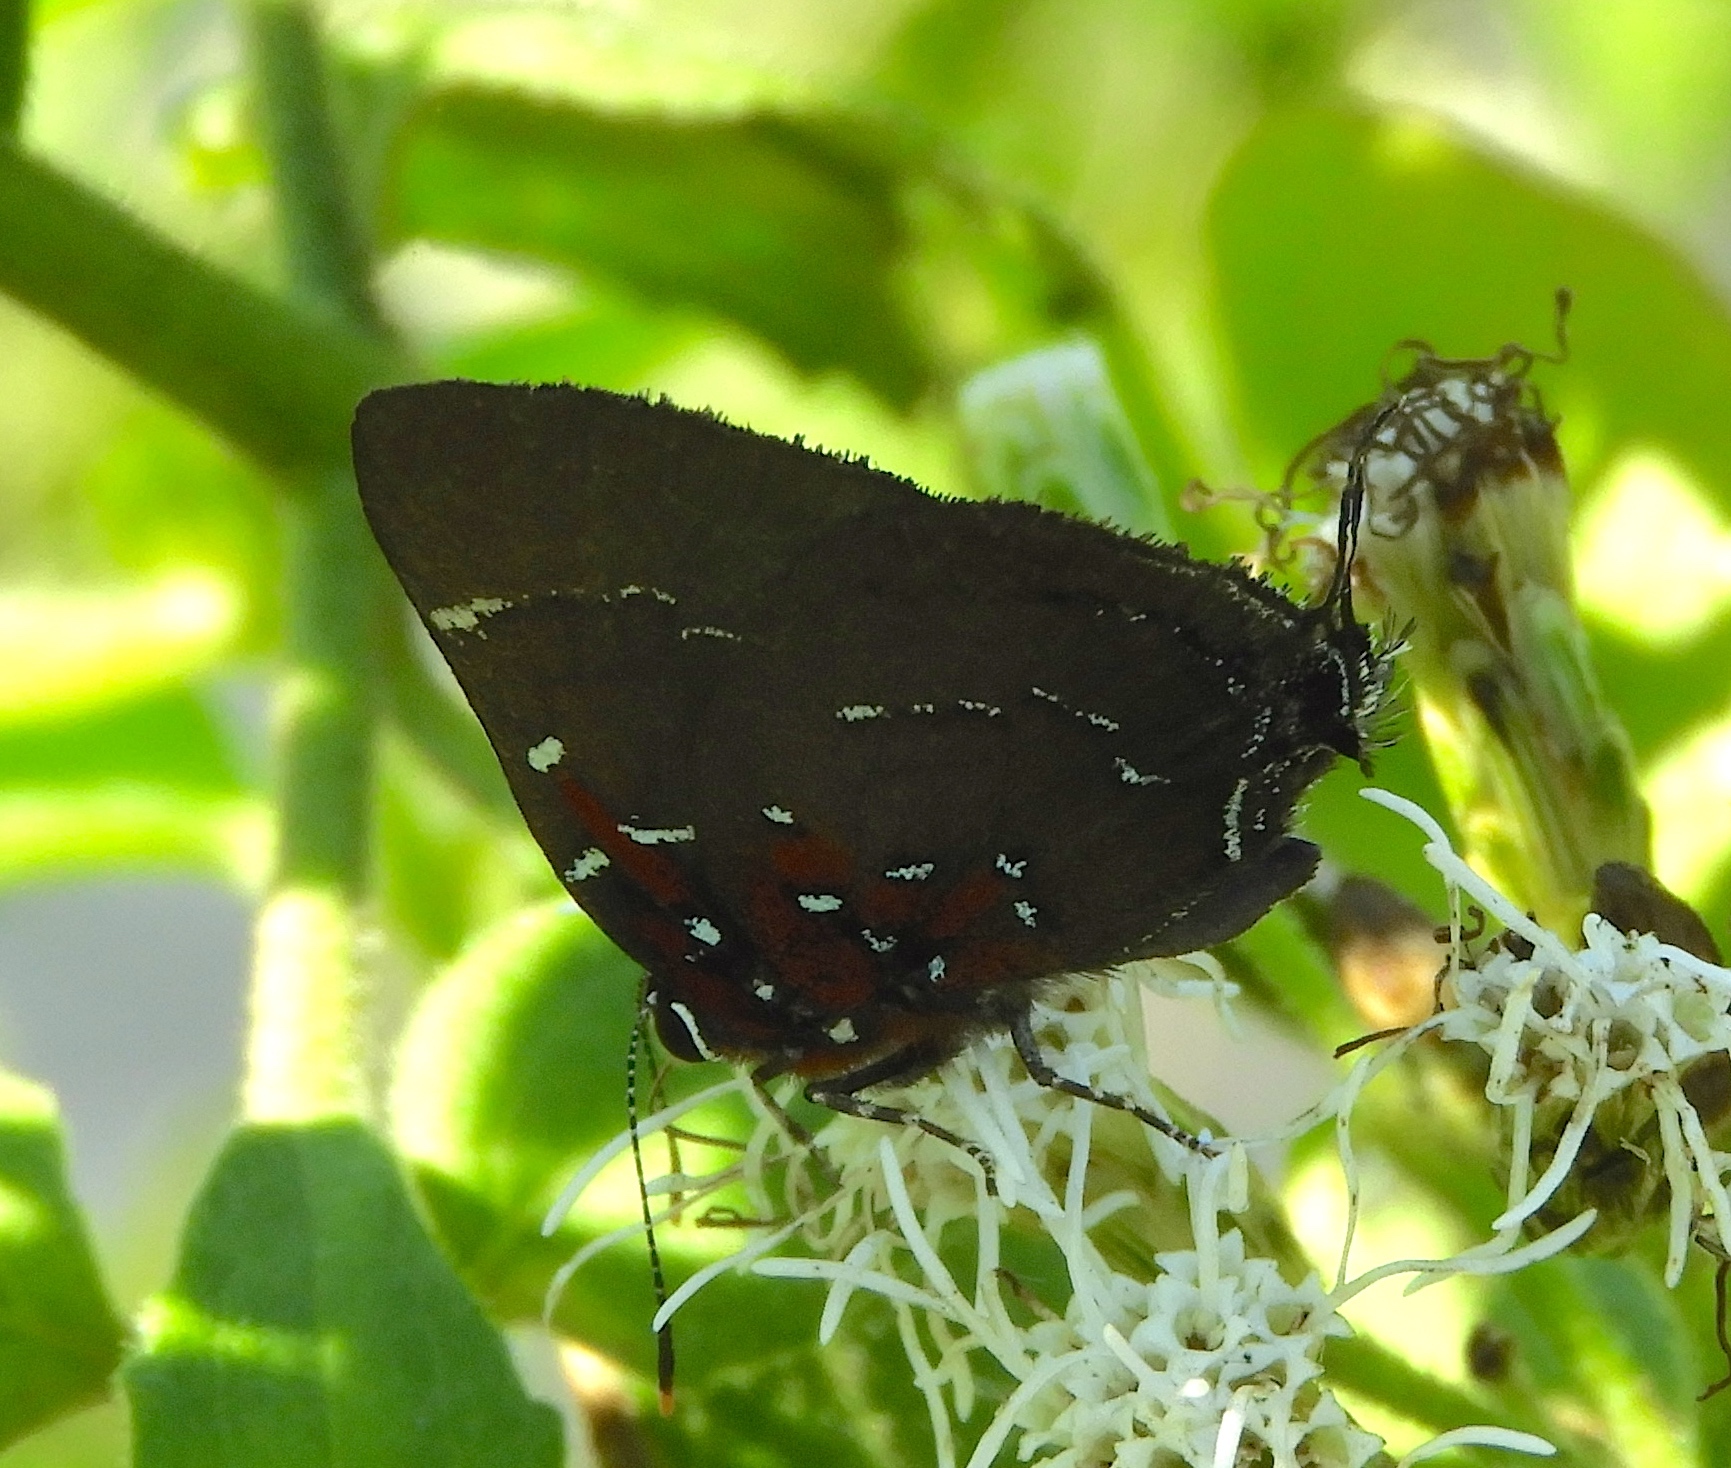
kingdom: Animalia
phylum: Arthropoda
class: Insecta
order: Lepidoptera
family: Lycaenidae
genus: Atlides
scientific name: Atlides Brangas neora
